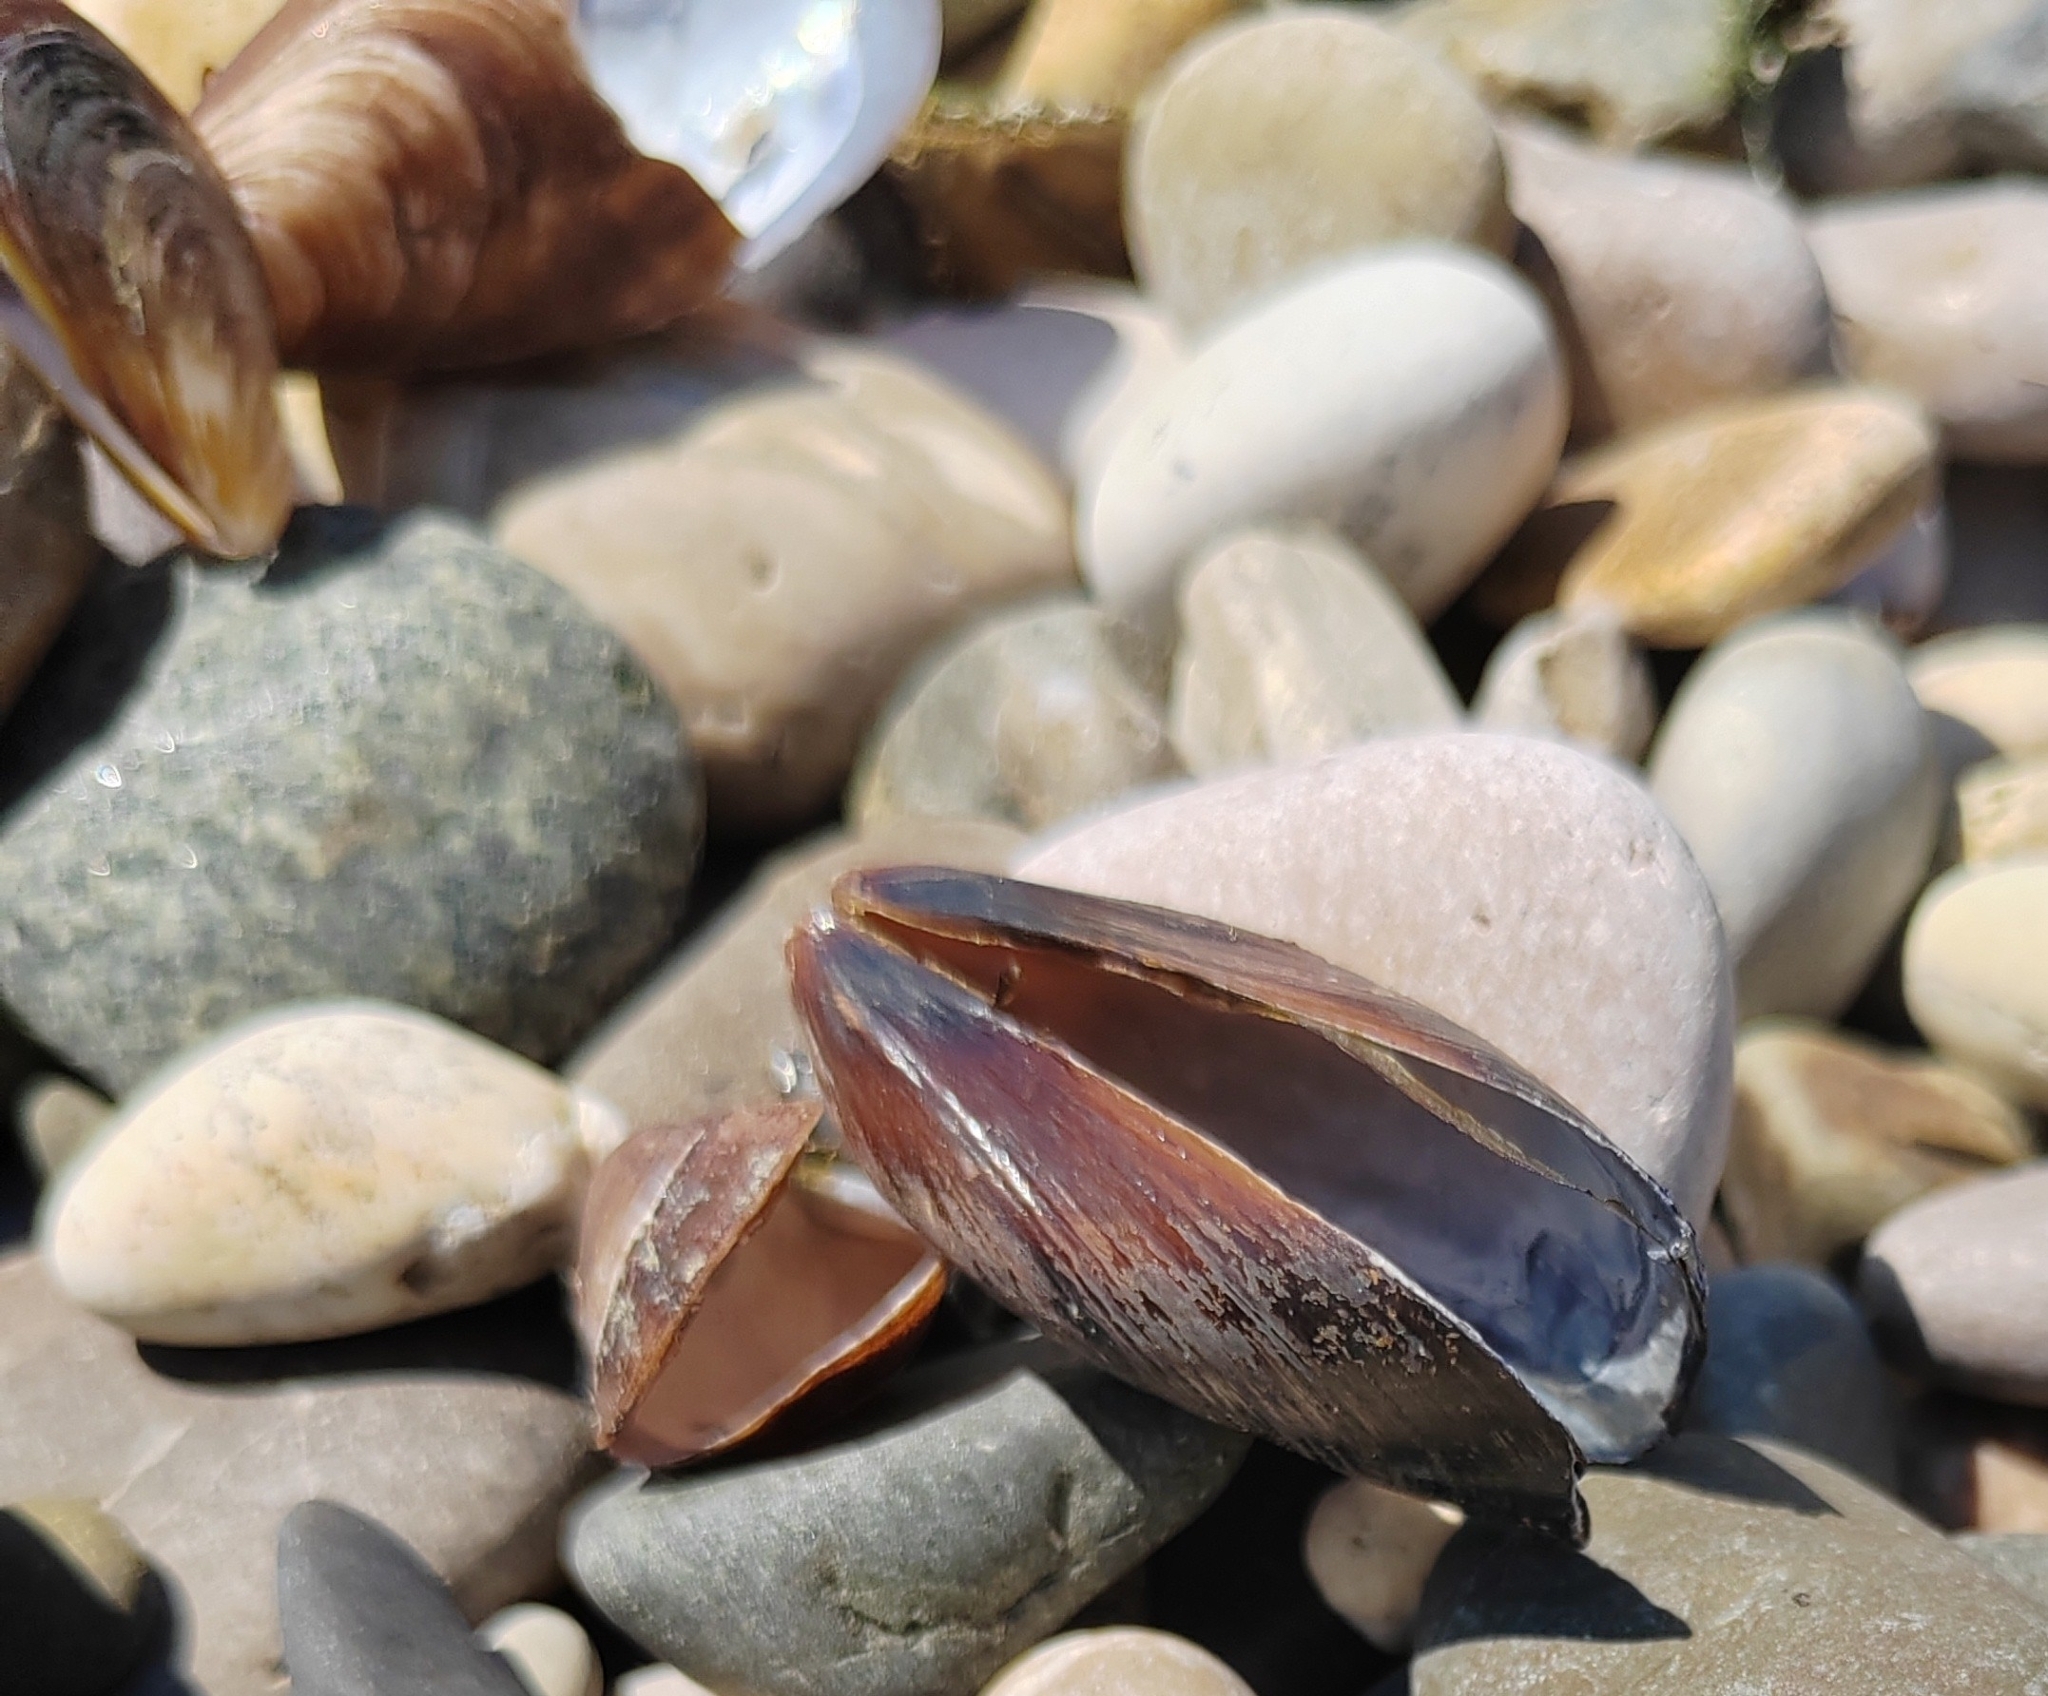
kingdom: Animalia
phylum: Mollusca
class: Bivalvia
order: Mytilida
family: Mytilidae
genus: Mytilus
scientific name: Mytilus galloprovincialis
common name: Mediterranean mussel
